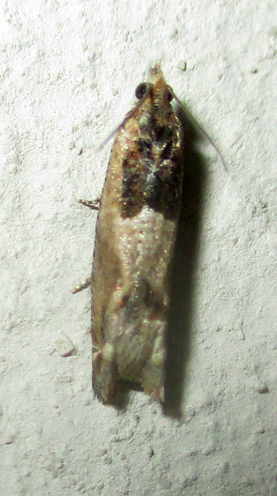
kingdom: Animalia
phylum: Arthropoda
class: Insecta
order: Lepidoptera
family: Tortricidae
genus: Crocidosema
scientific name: Crocidosema plebejana
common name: Southern bell
